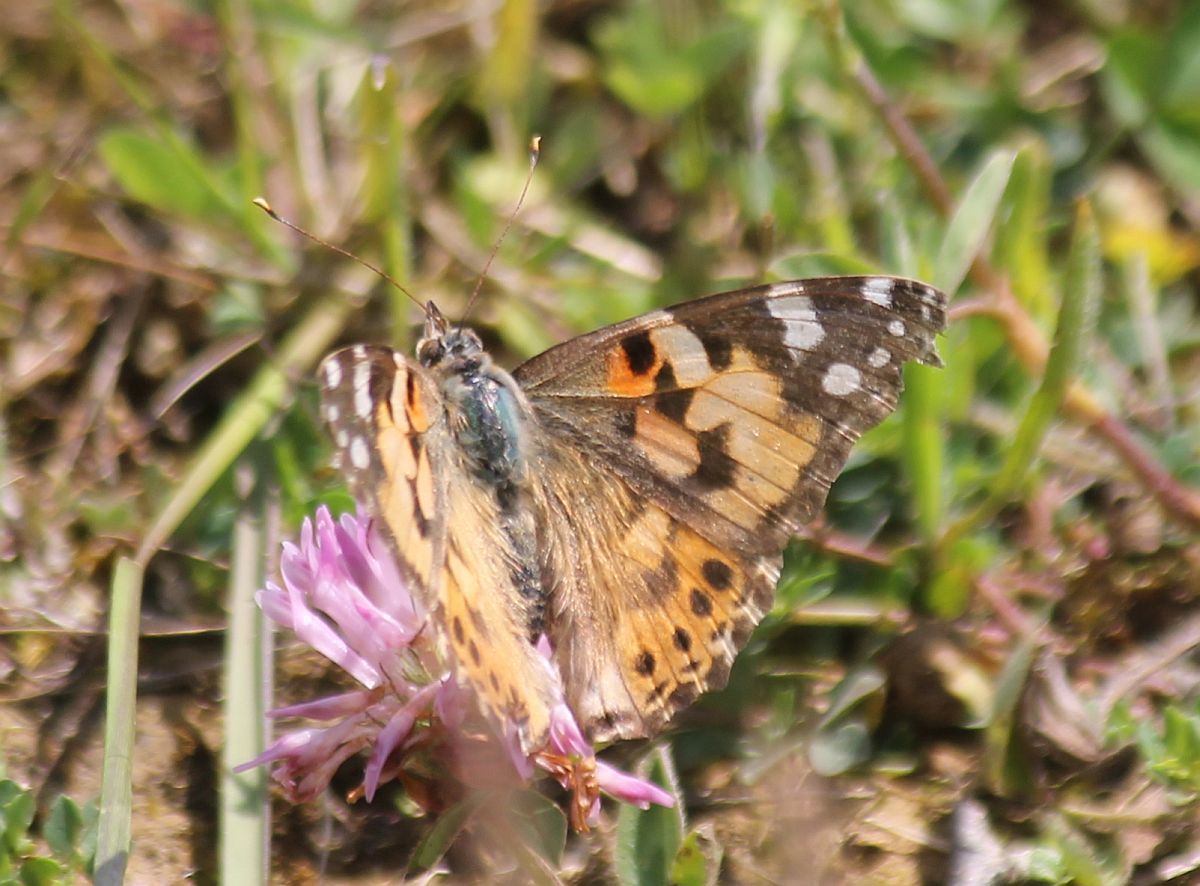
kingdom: Animalia
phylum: Arthropoda
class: Insecta
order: Lepidoptera
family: Nymphalidae
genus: Vanessa
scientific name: Vanessa cardui
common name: Painted lady
